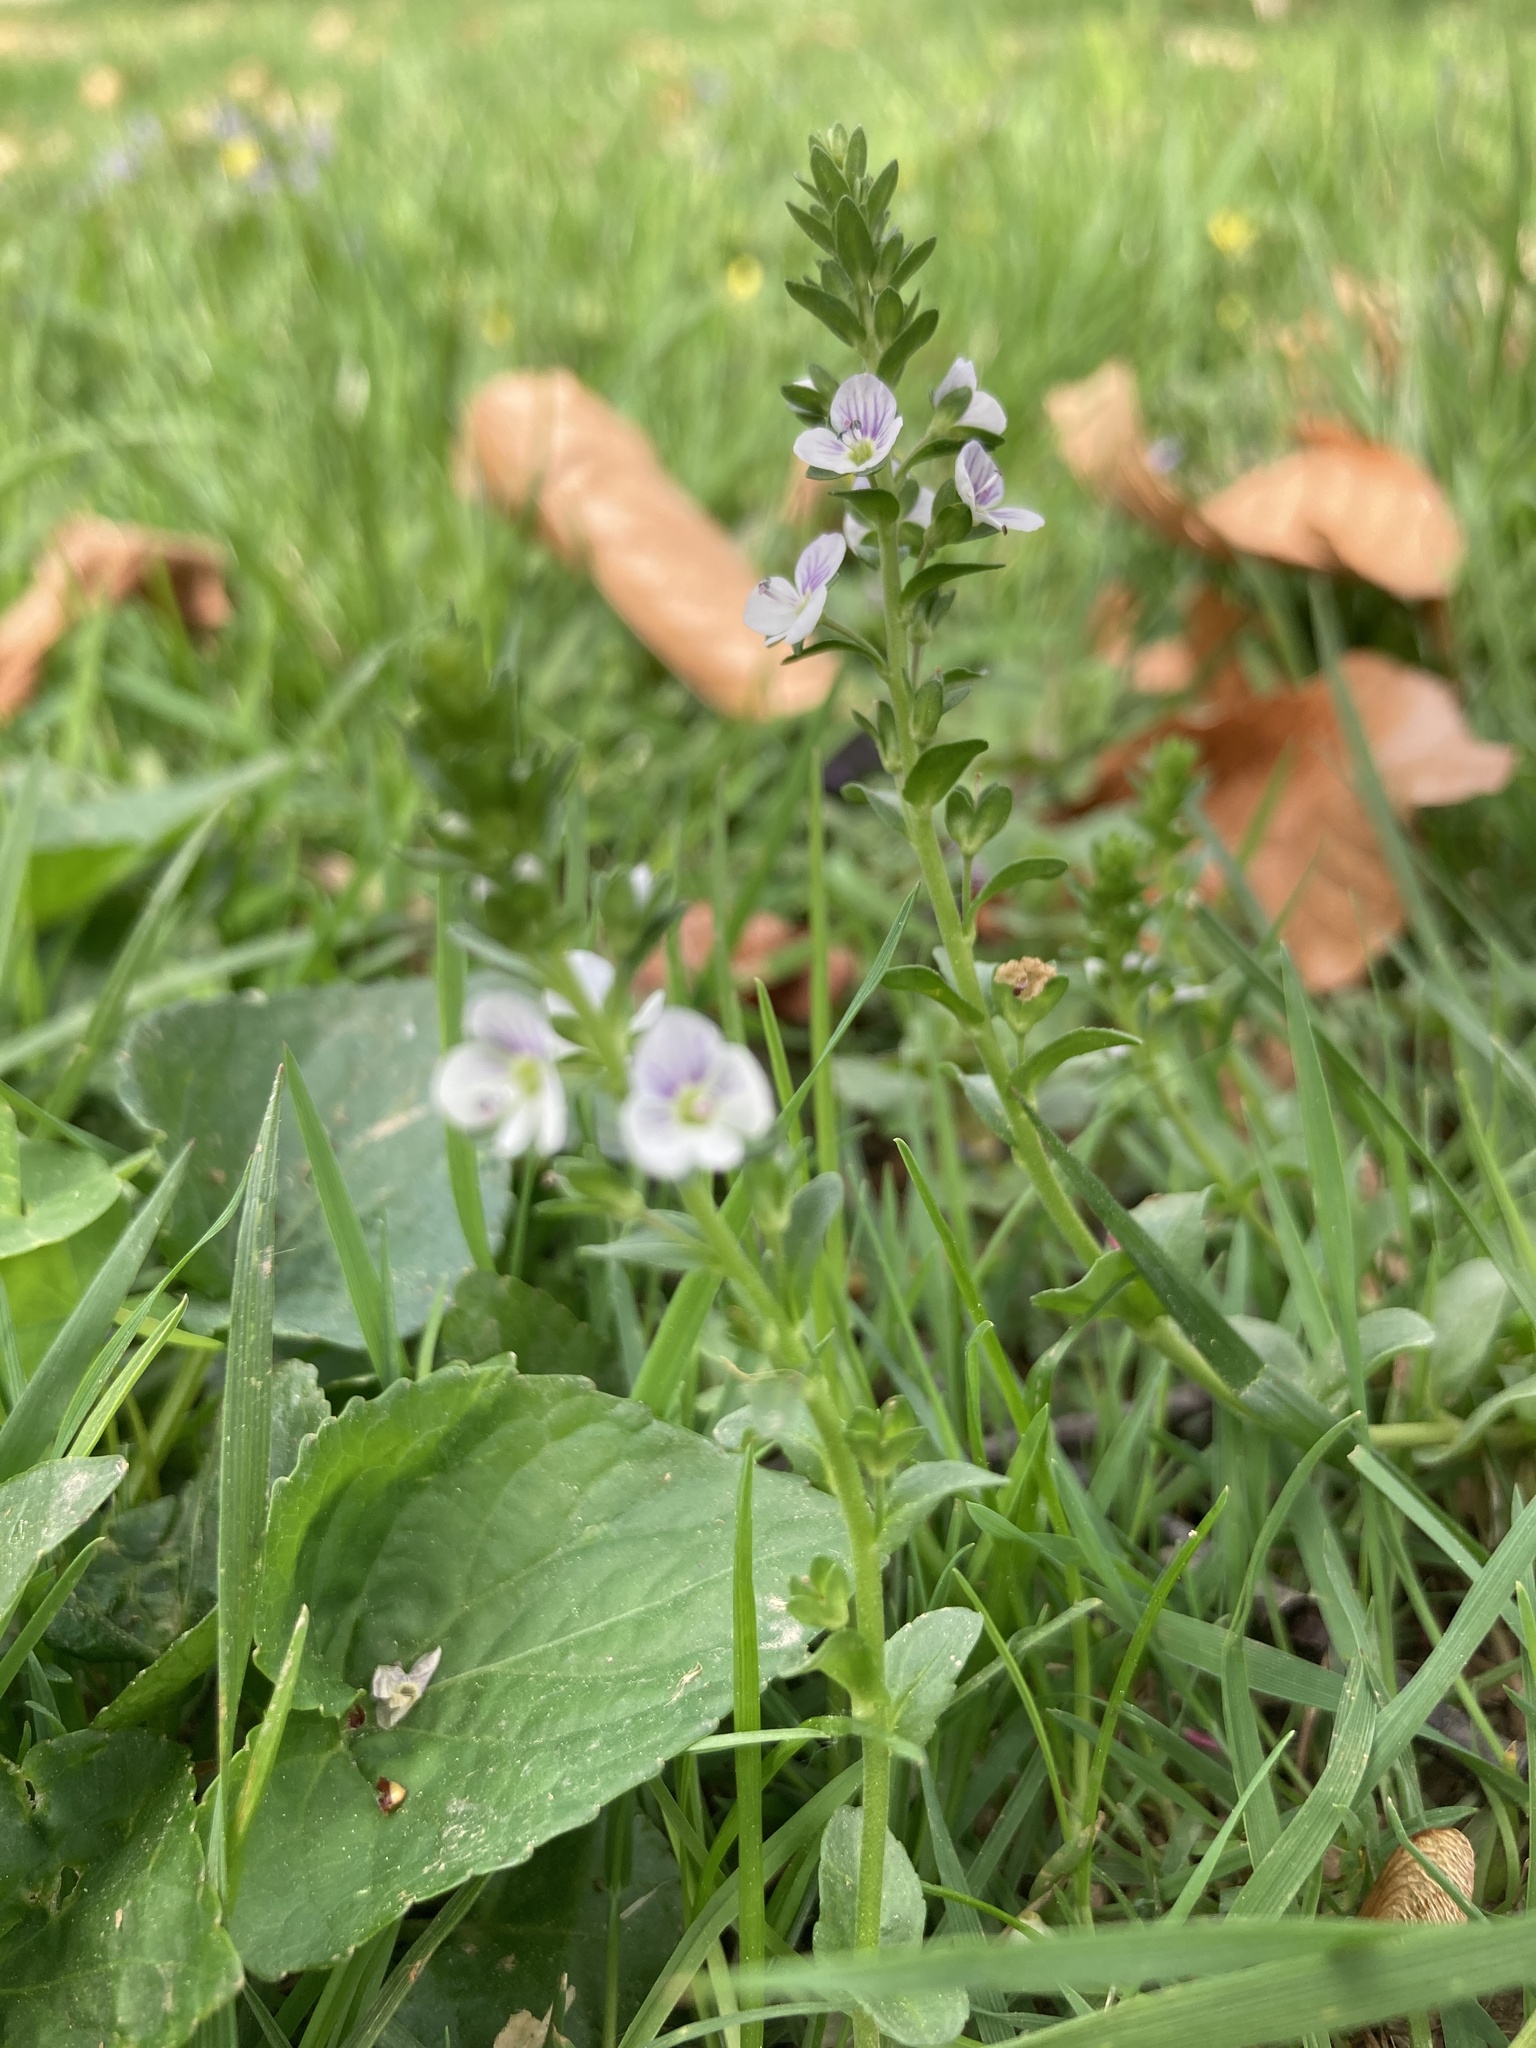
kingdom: Plantae
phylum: Tracheophyta
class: Magnoliopsida
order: Lamiales
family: Plantaginaceae
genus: Veronica
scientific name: Veronica serpyllifolia
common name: Thyme-leaved speedwell
